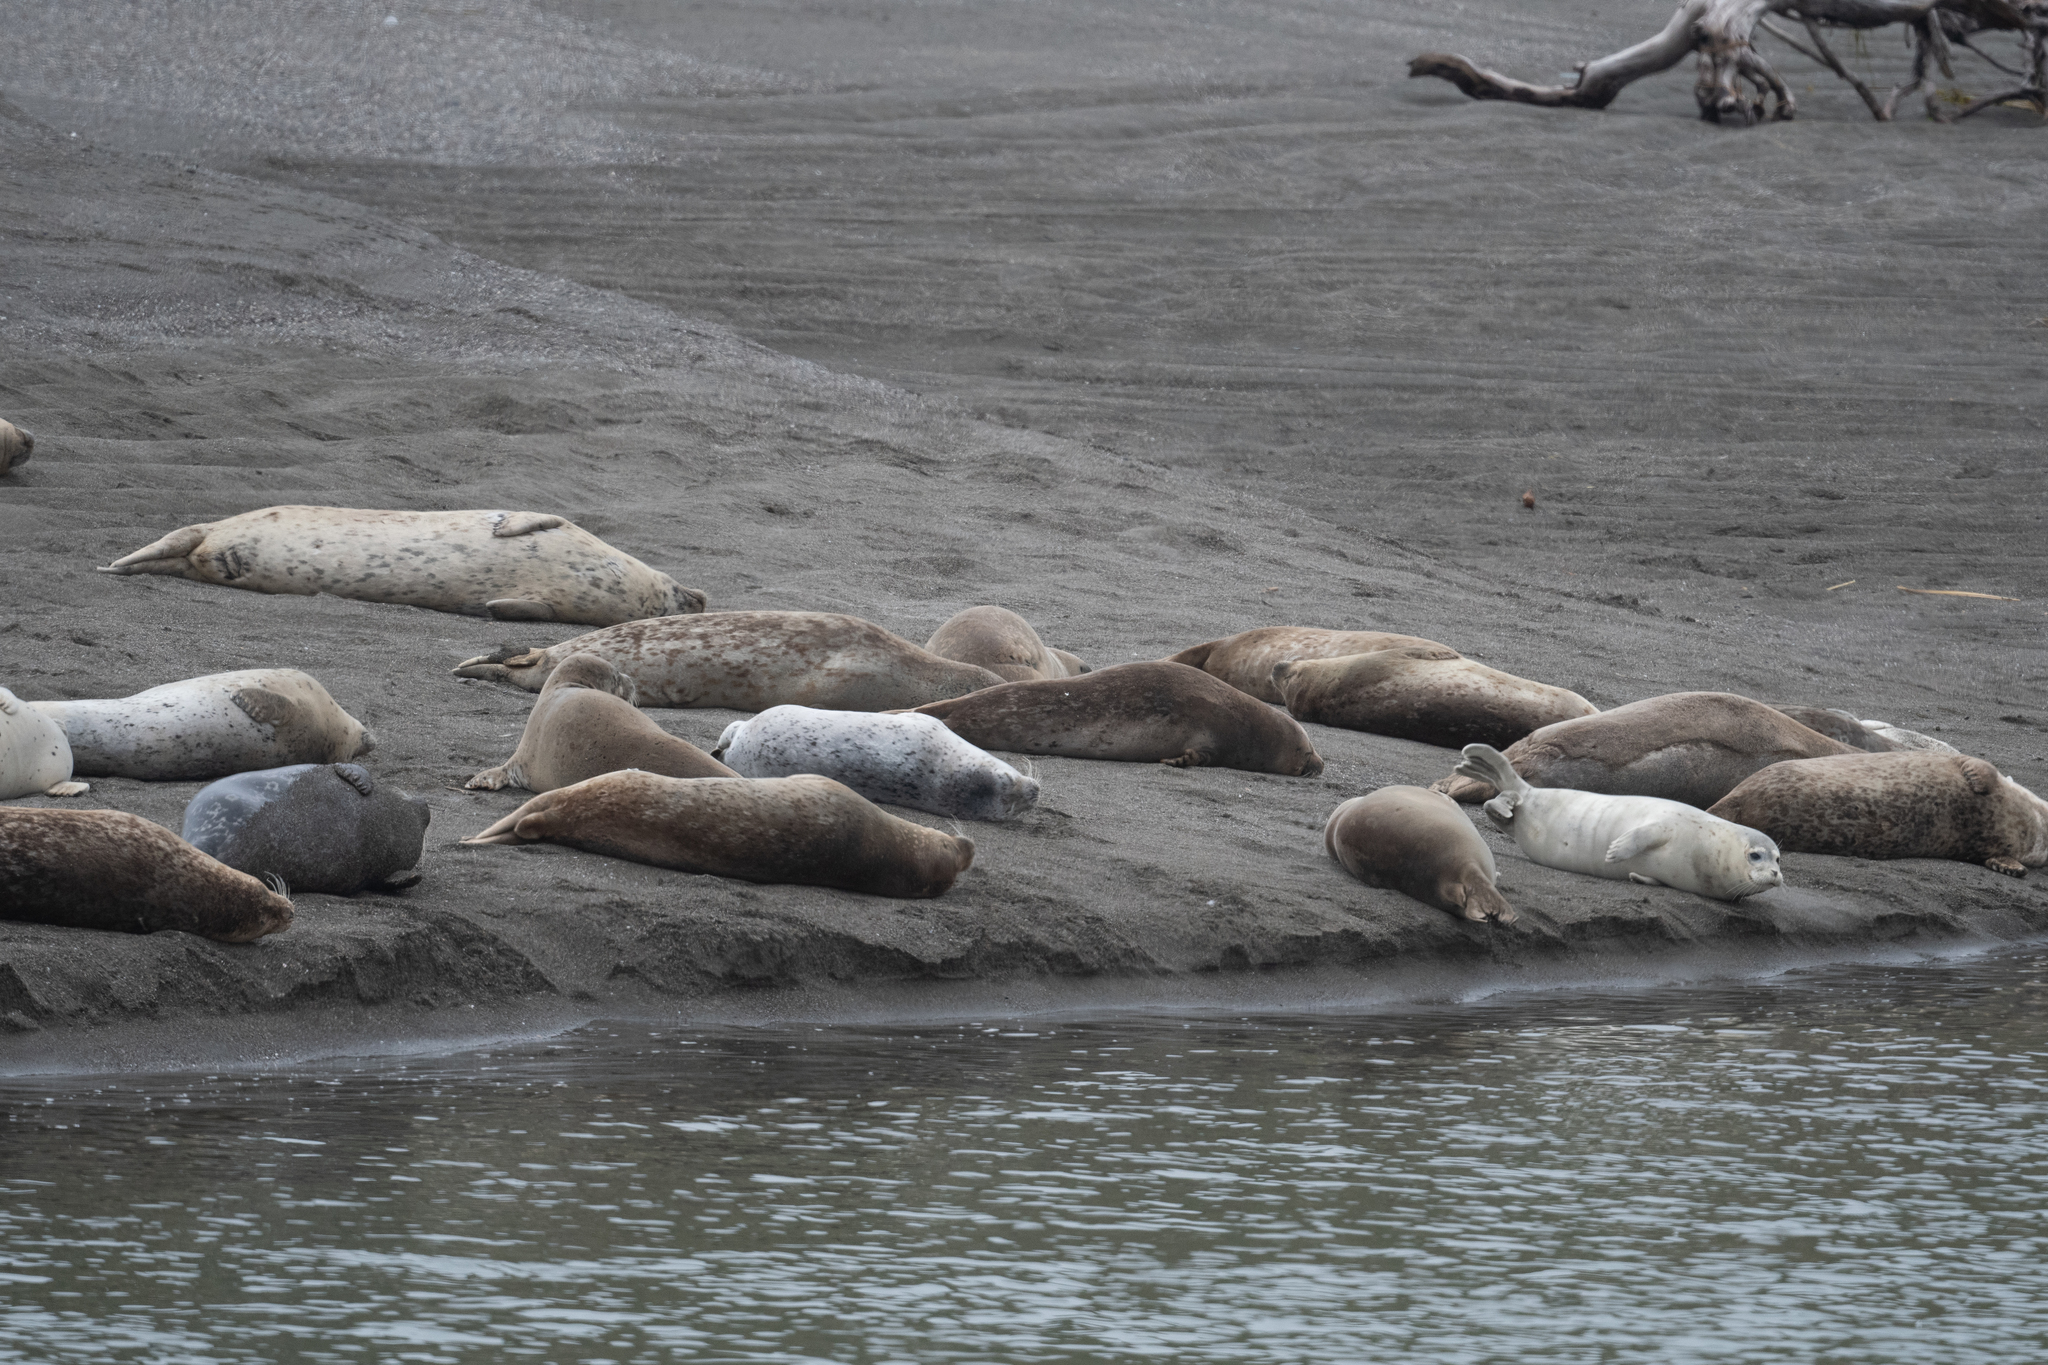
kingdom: Animalia
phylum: Chordata
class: Mammalia
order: Carnivora
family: Phocidae
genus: Phoca
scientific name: Phoca vitulina
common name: Harbor seal
